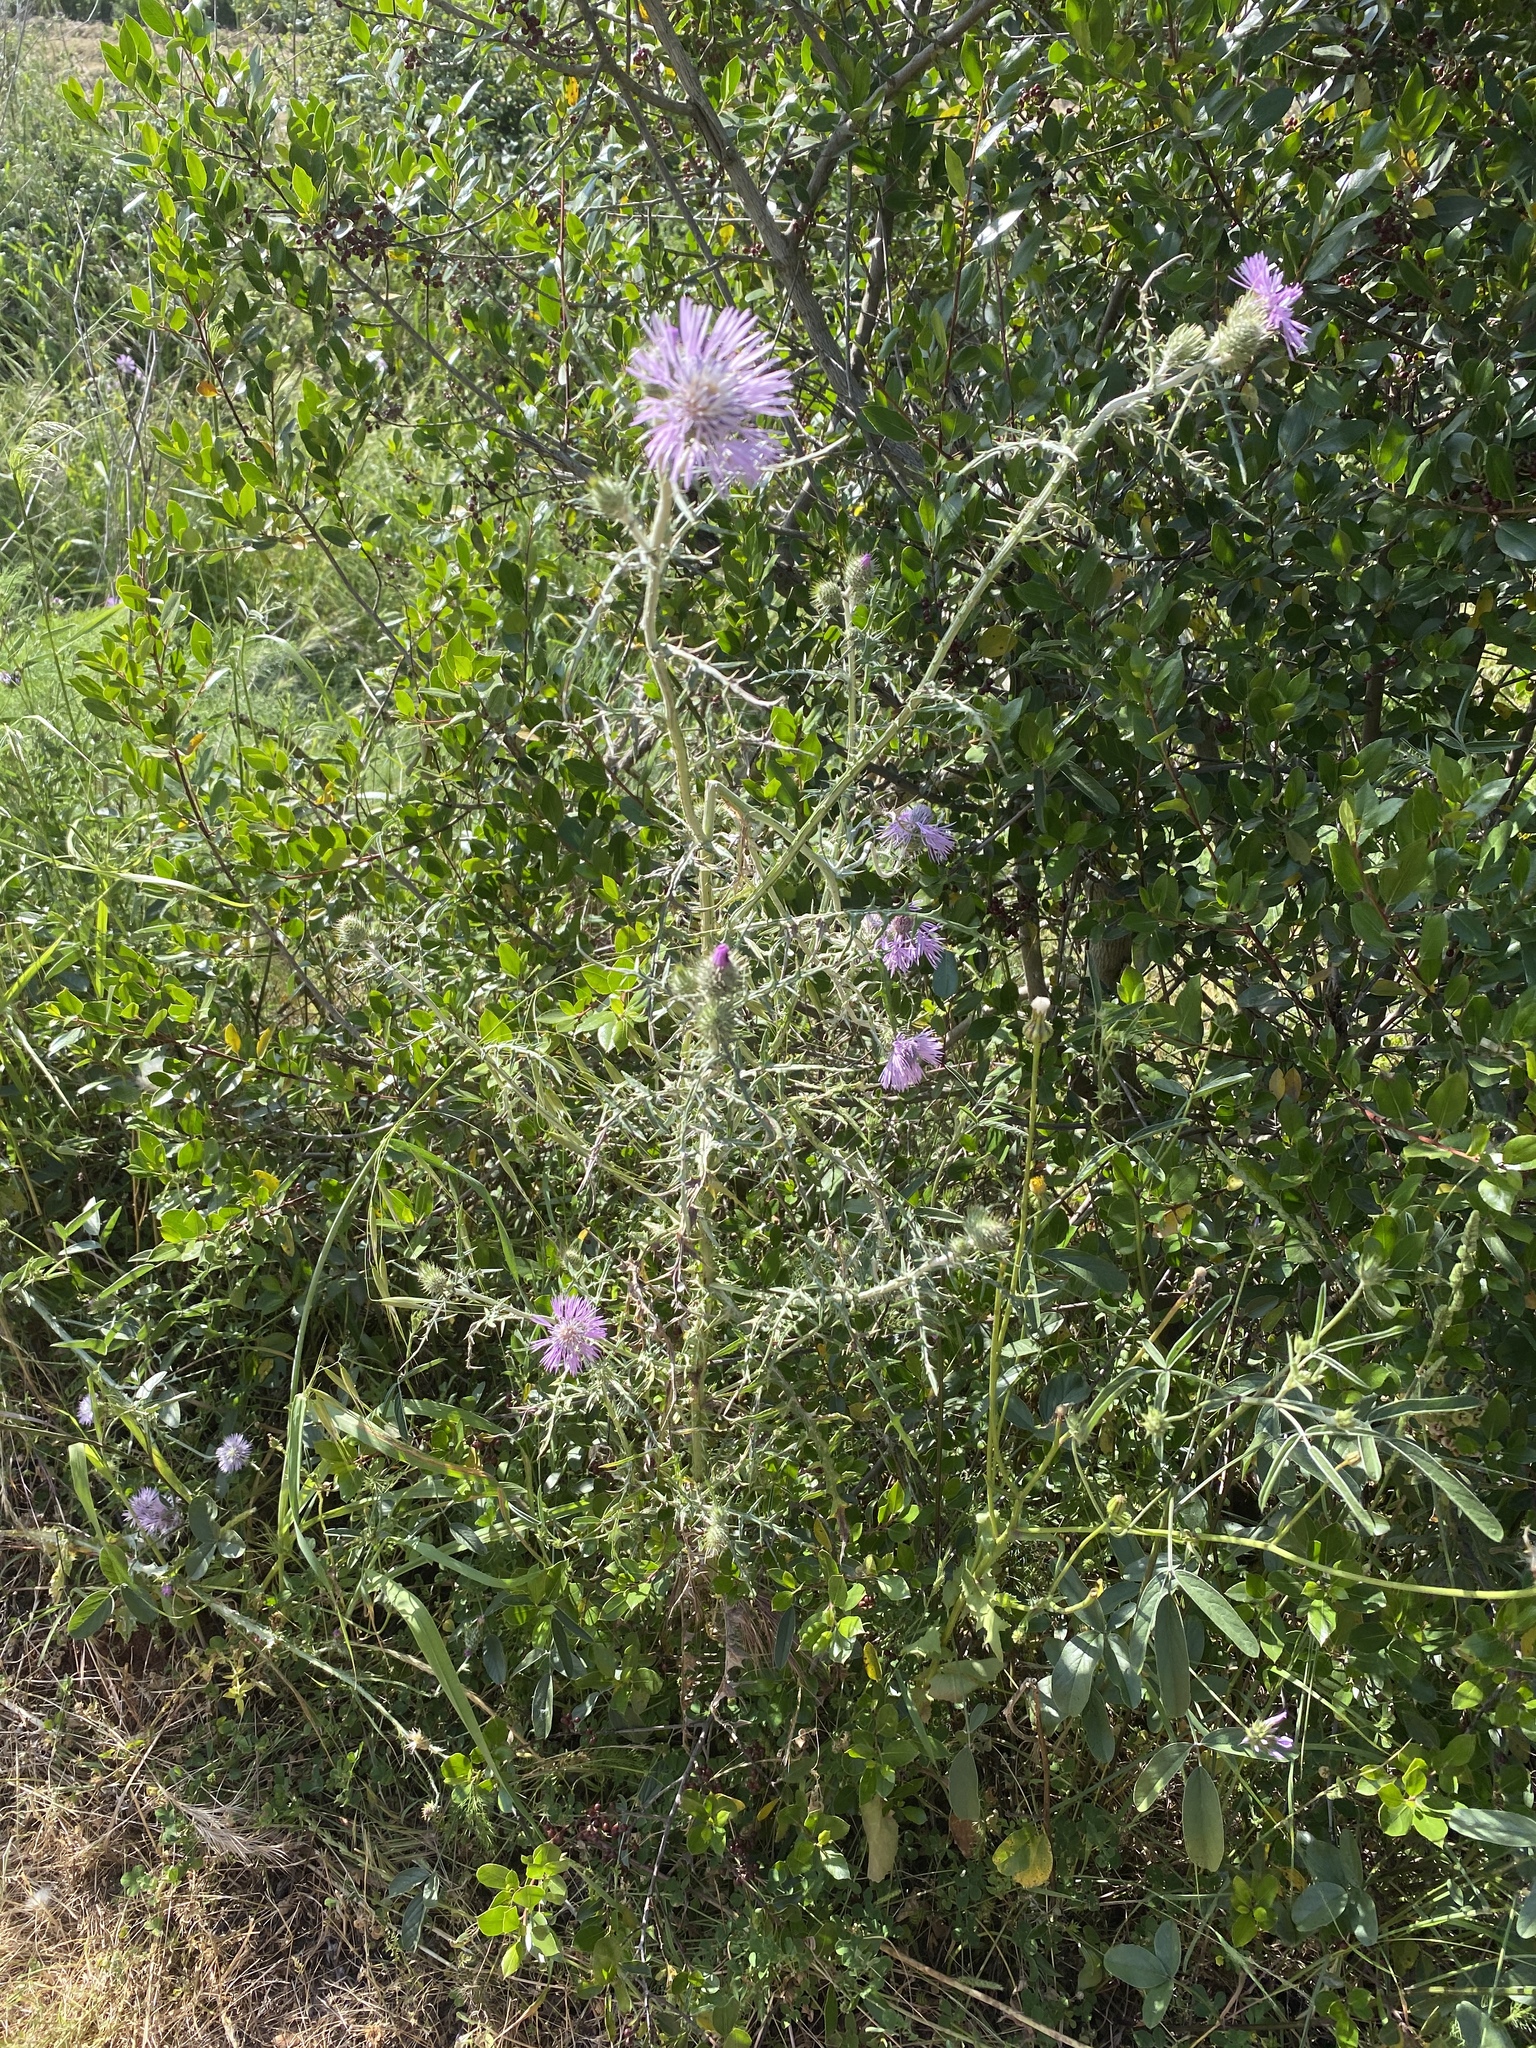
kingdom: Plantae
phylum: Tracheophyta
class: Magnoliopsida
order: Asterales
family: Asteraceae
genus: Galactites
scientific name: Galactites tomentosa
